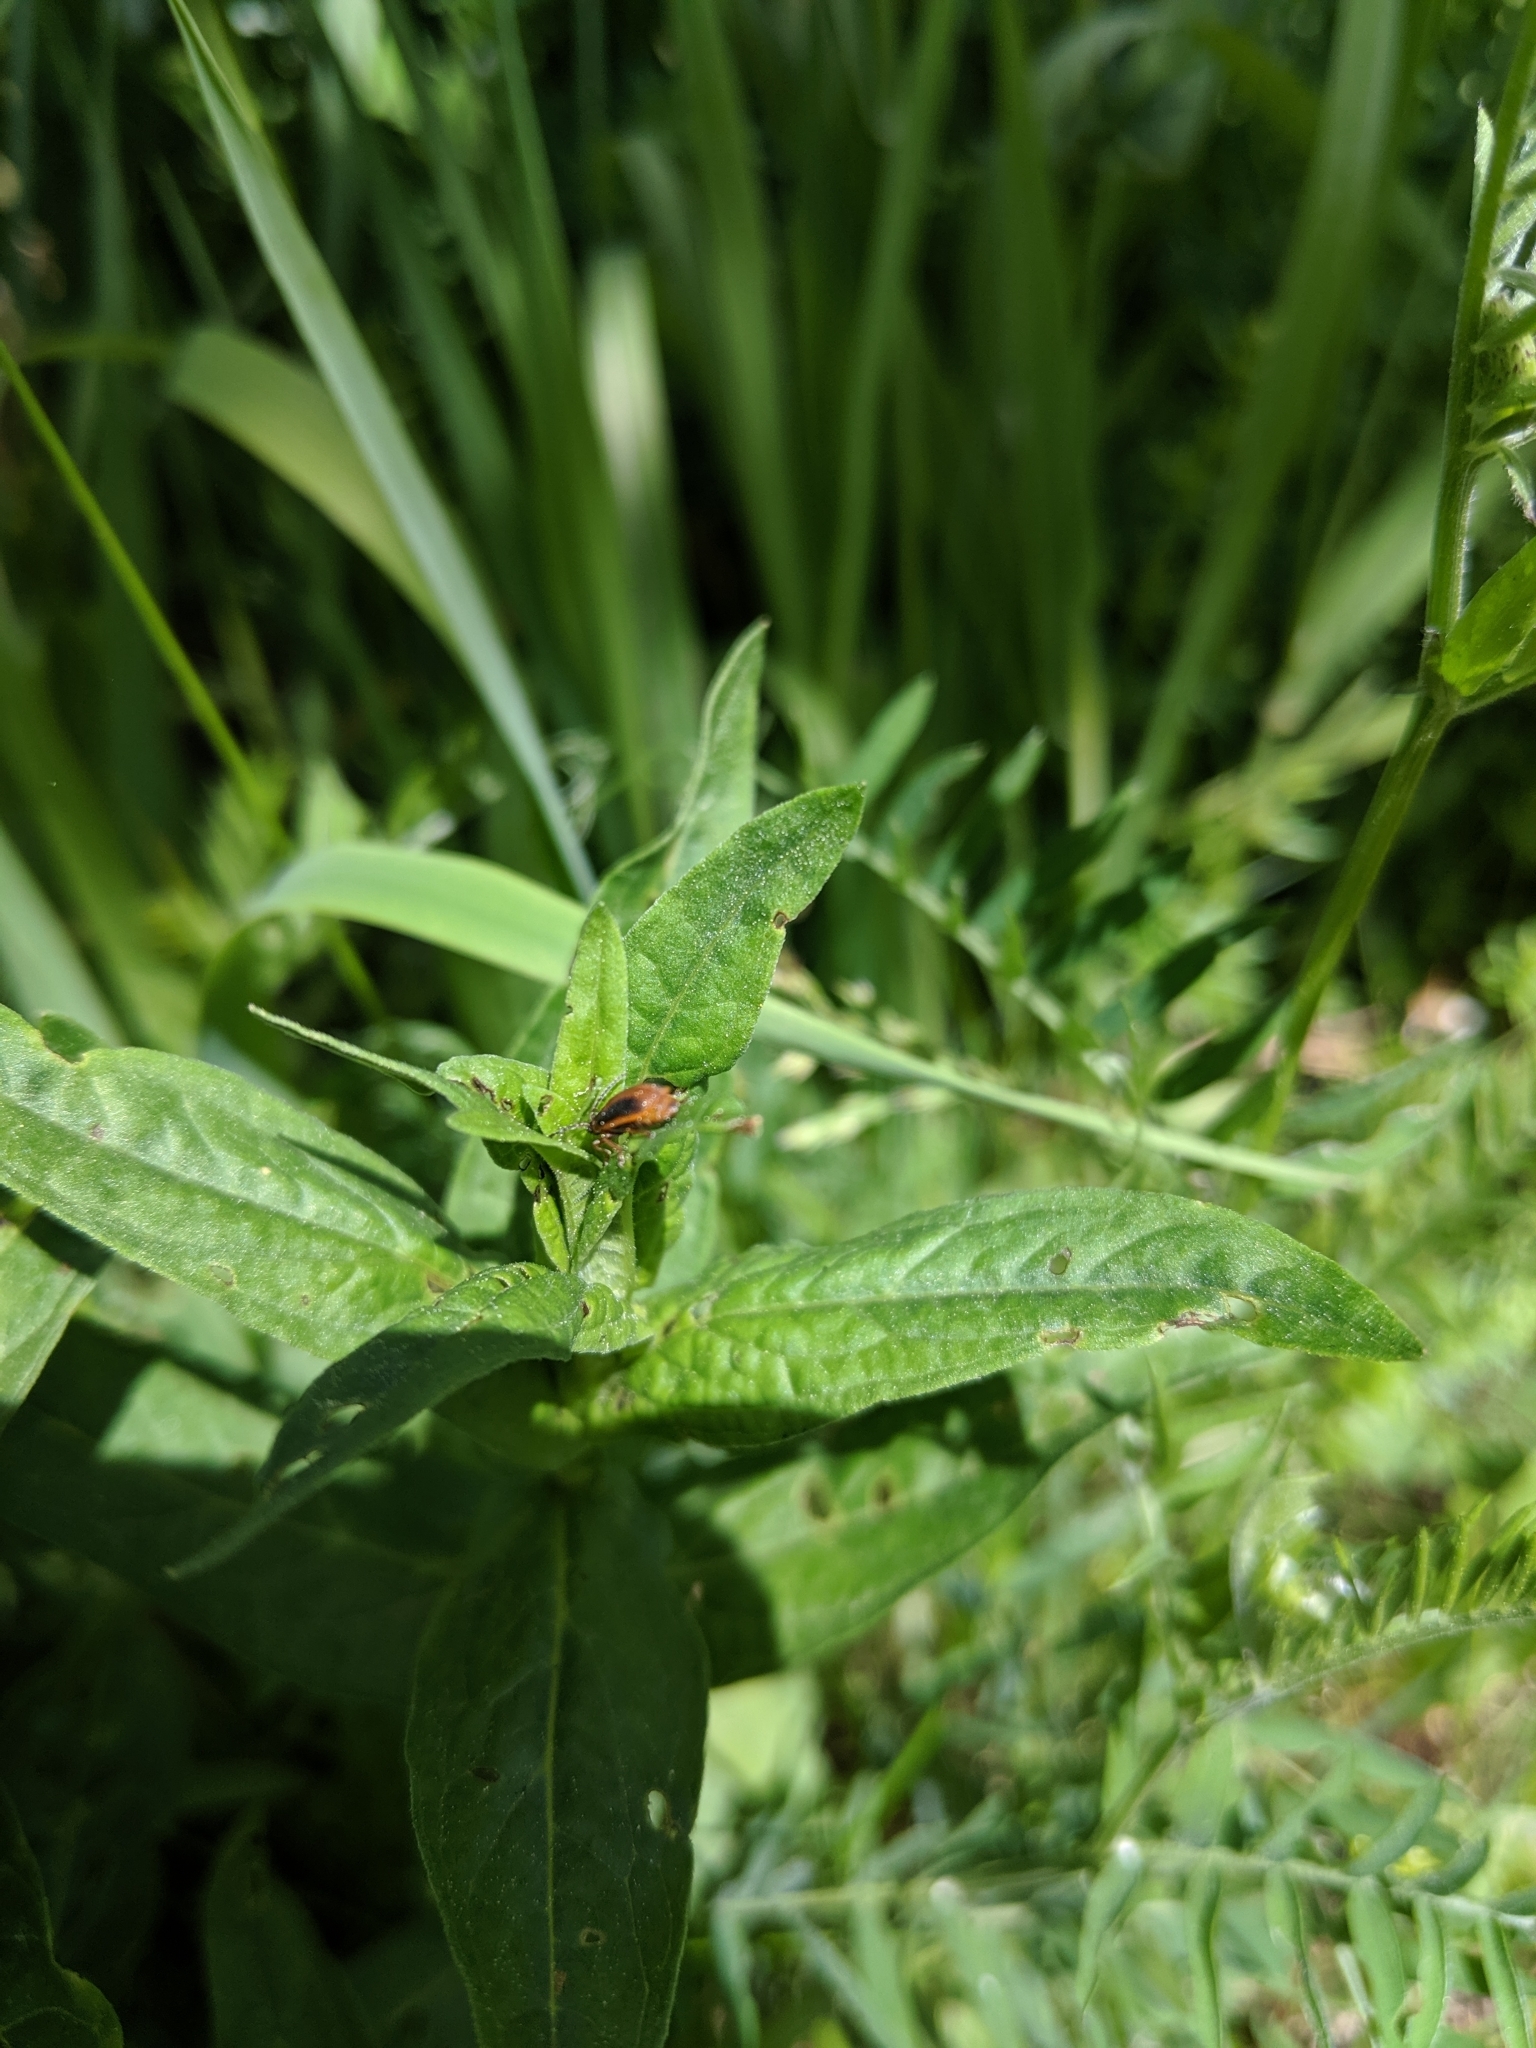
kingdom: Animalia
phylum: Arthropoda
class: Insecta
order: Coleoptera
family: Chrysomelidae
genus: Neogalerucella
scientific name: Neogalerucella calmariensis
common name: Black-margined loosestrife beetle
